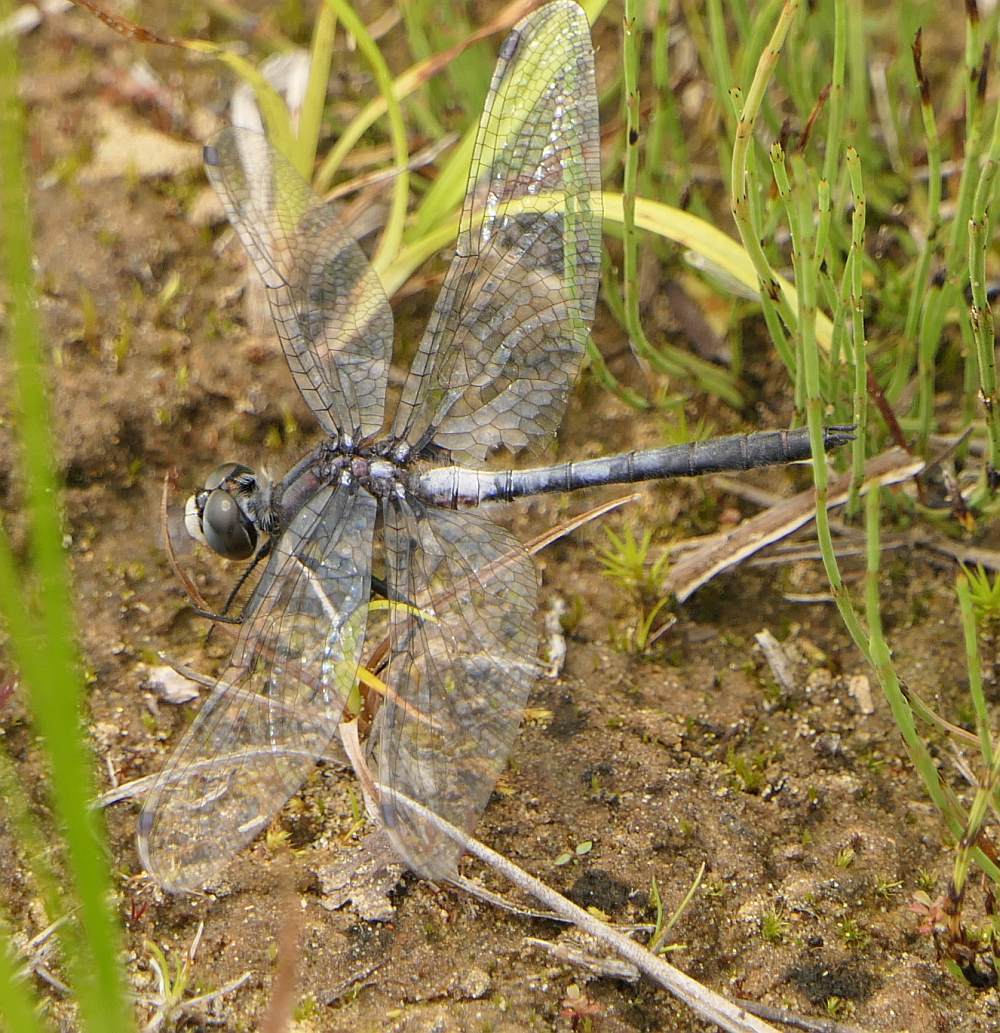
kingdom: Animalia
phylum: Arthropoda
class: Insecta
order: Odonata
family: Libellulidae
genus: Leucorrhinia
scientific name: Leucorrhinia proxima
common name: Belted whiteface
